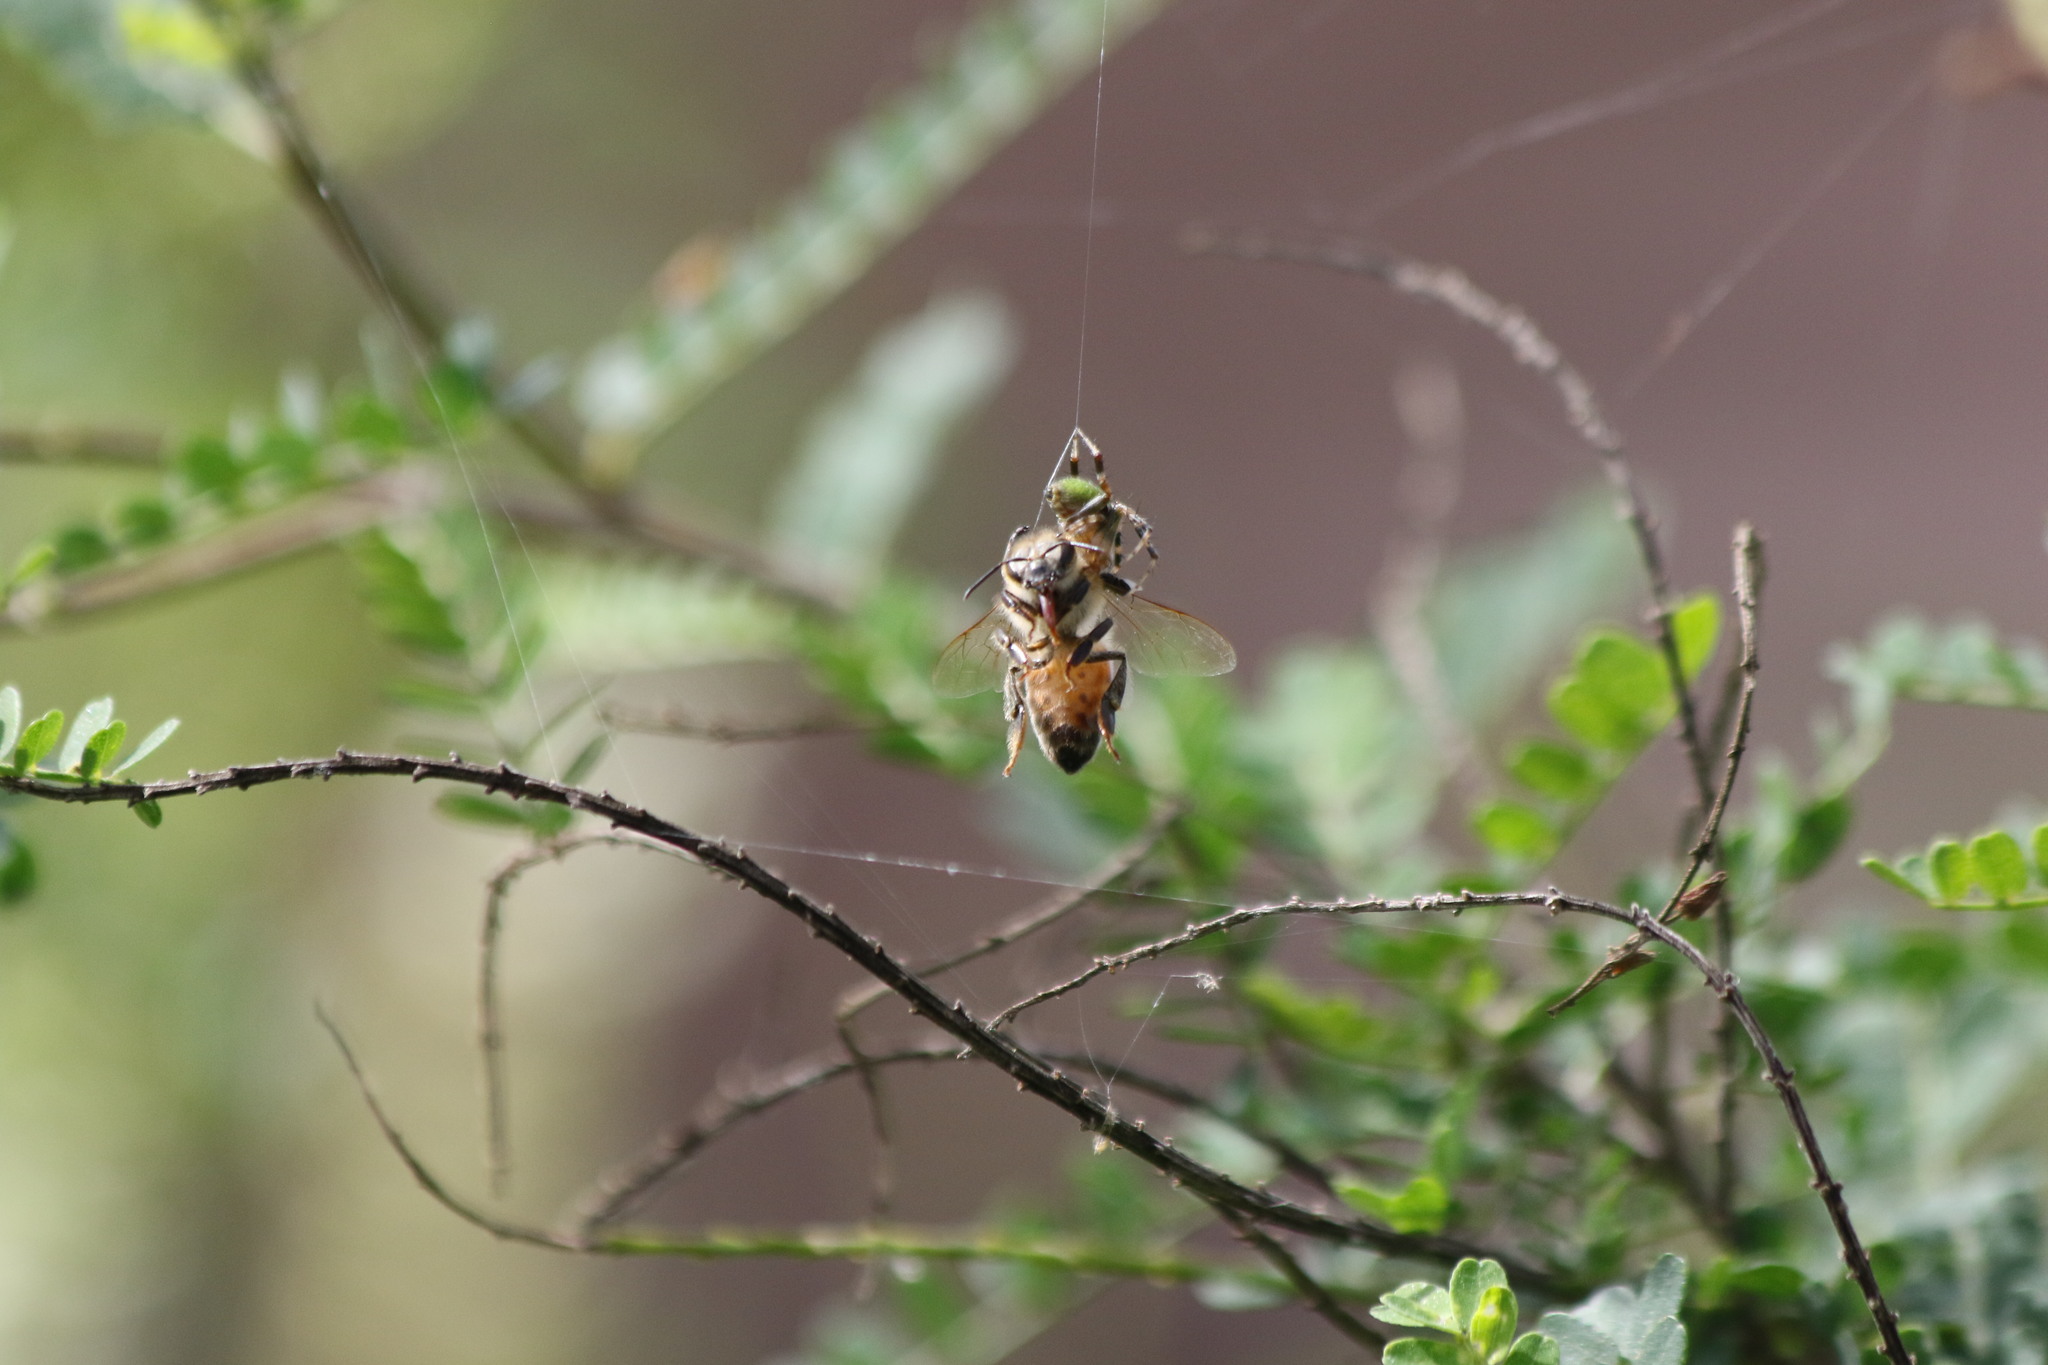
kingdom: Animalia
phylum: Arthropoda
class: Arachnida
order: Araneae
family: Araneidae
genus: Eriophora
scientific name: Eriophora ravilla
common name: Orb weavers
